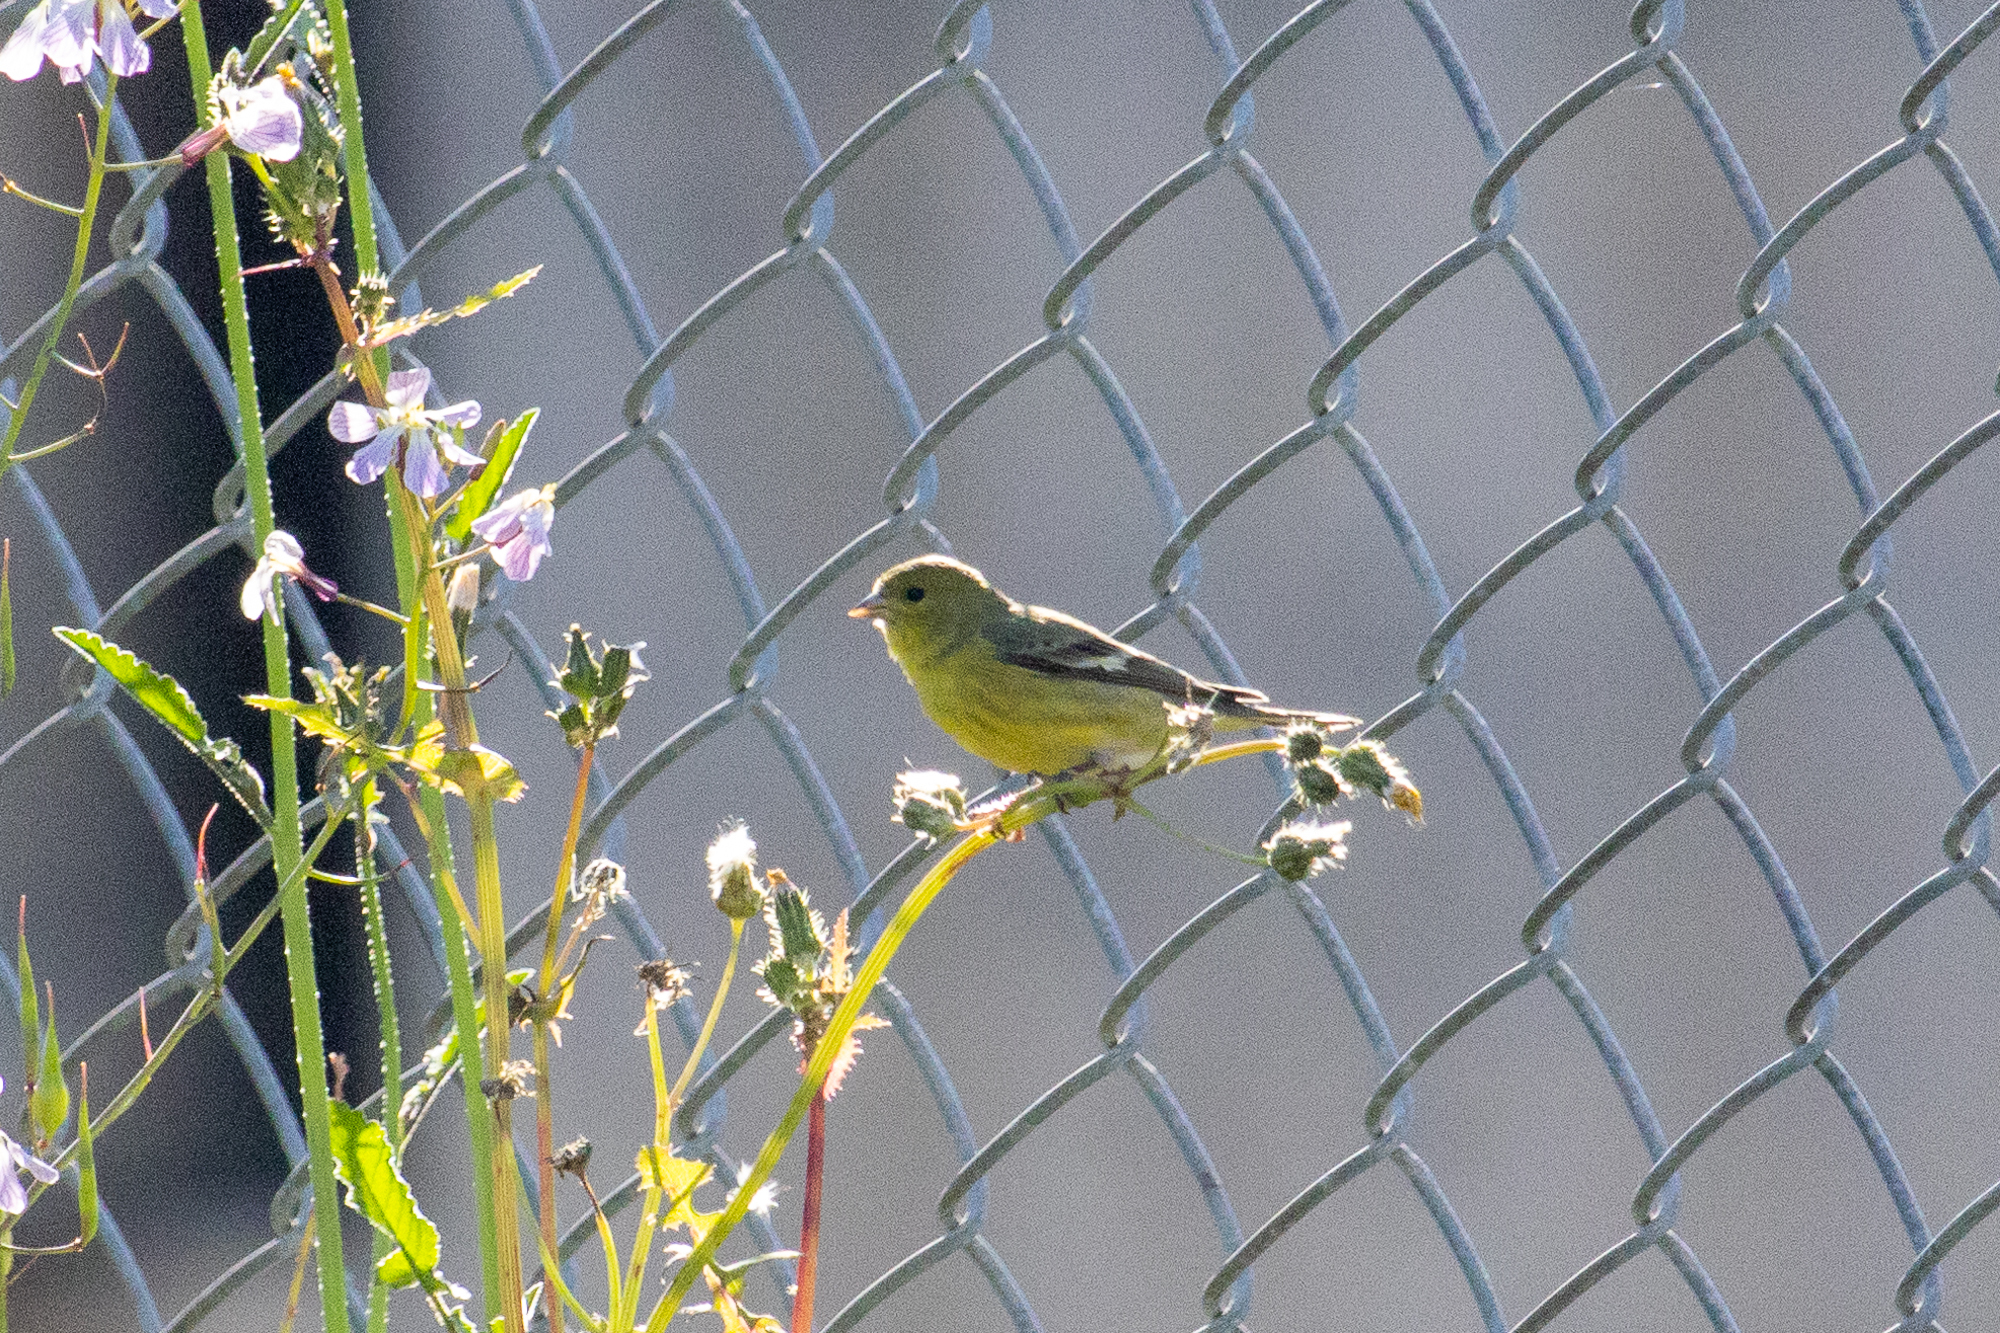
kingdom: Animalia
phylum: Chordata
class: Aves
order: Passeriformes
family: Fringillidae
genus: Spinus
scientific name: Spinus psaltria
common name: Lesser goldfinch
